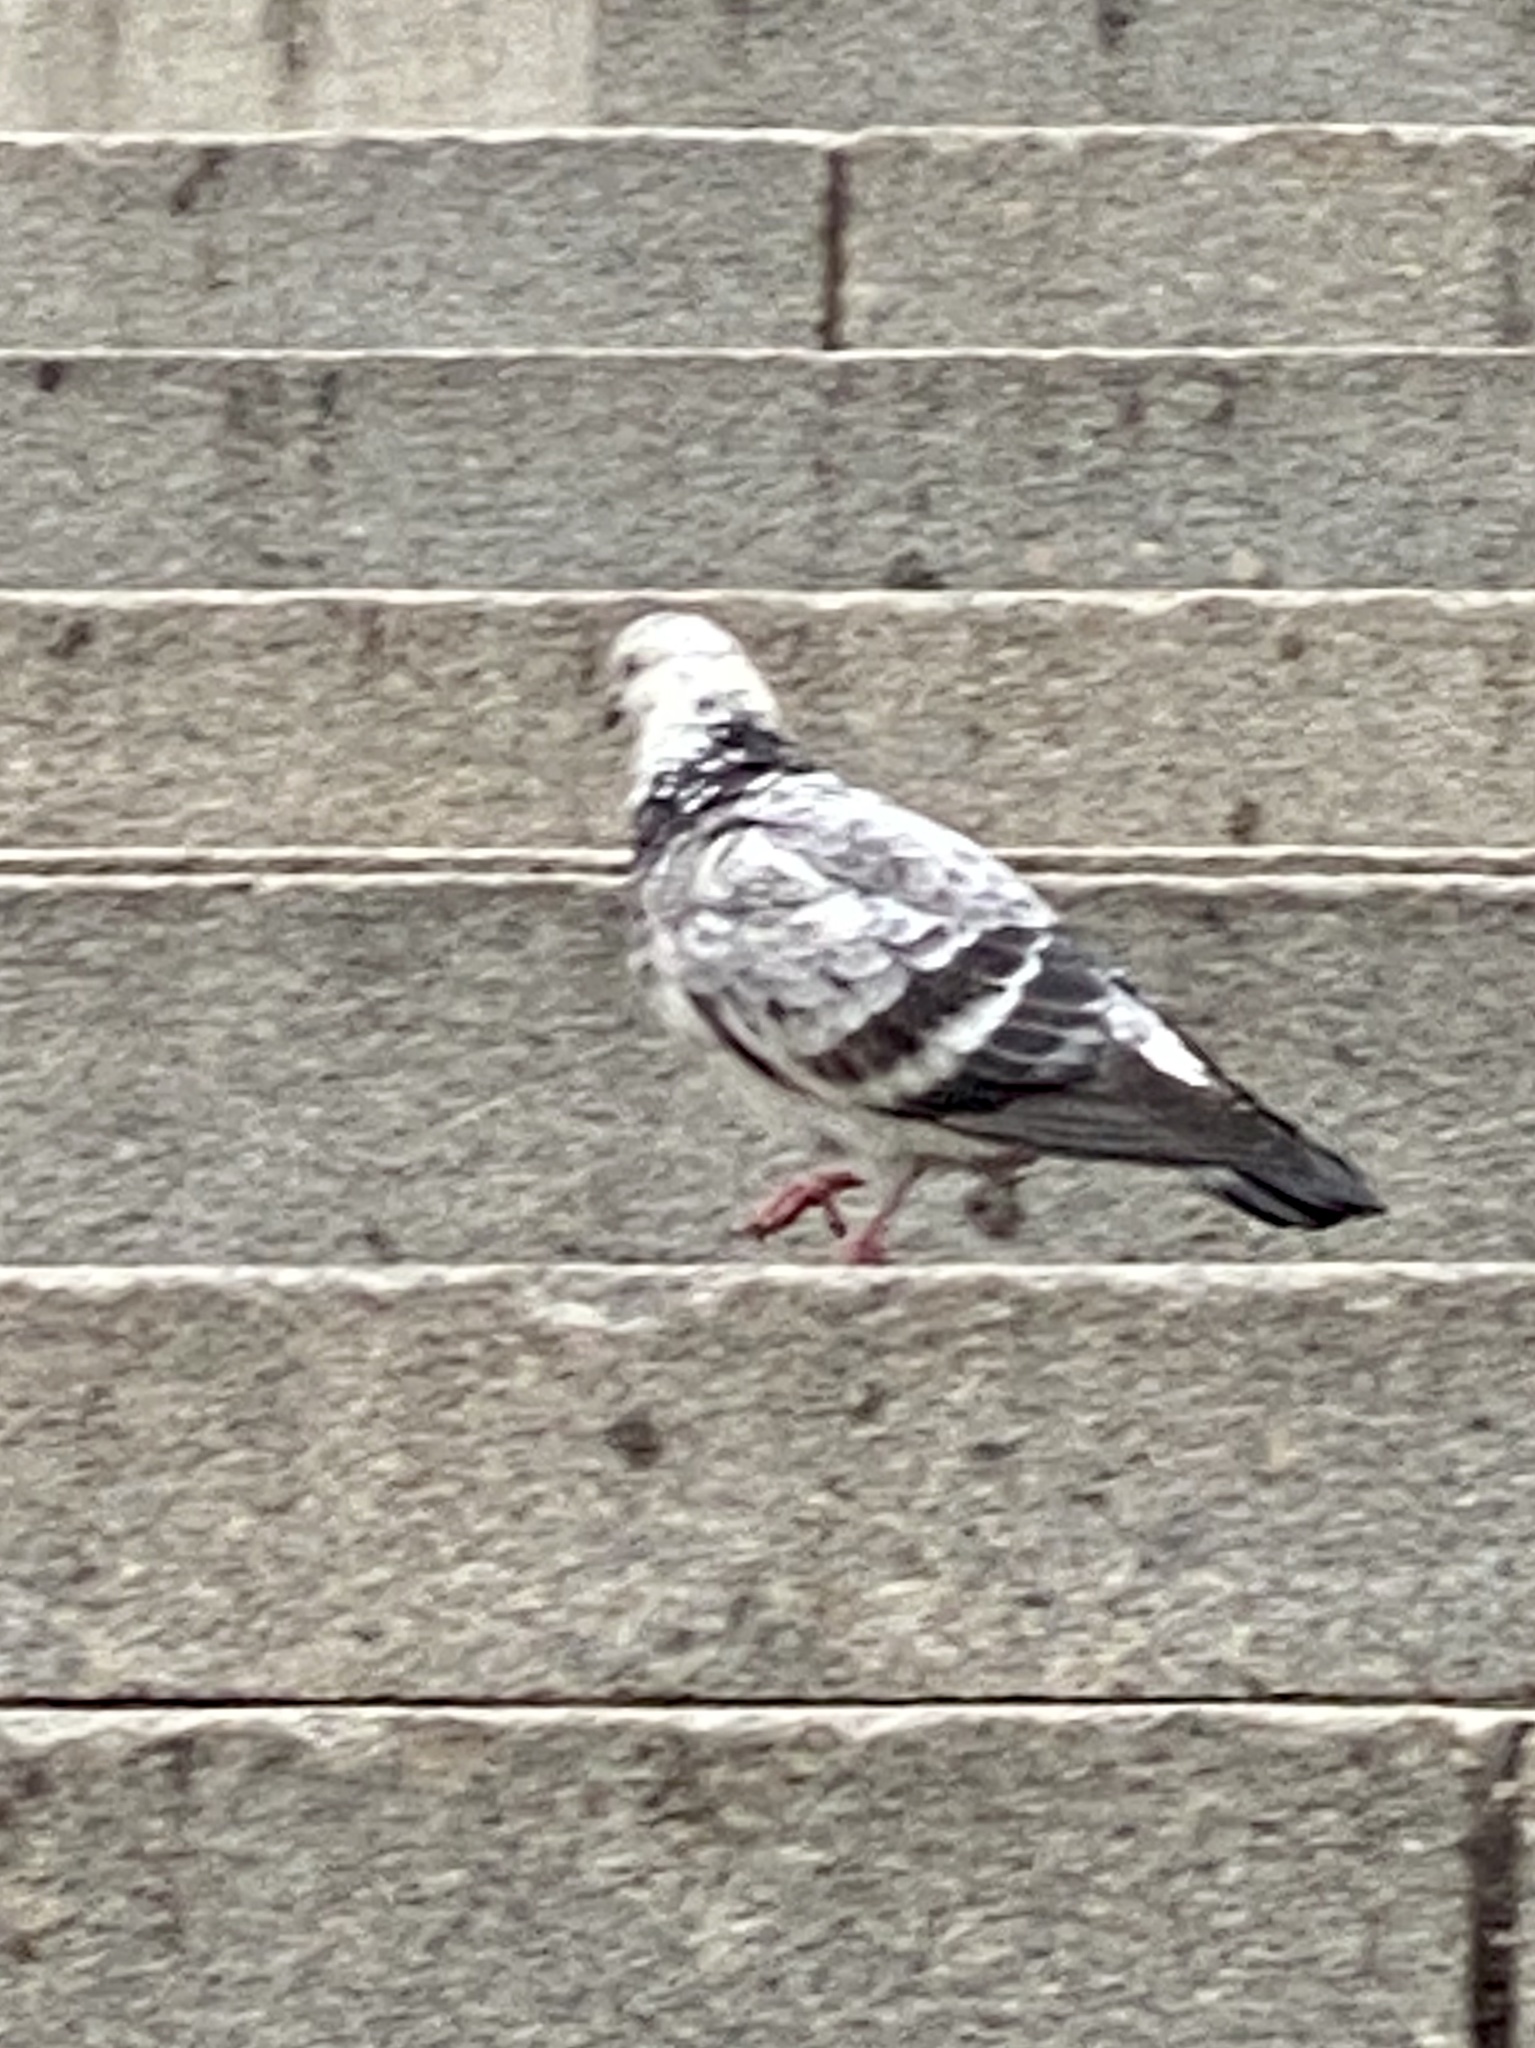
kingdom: Animalia
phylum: Chordata
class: Aves
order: Columbiformes
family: Columbidae
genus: Columba
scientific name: Columba livia
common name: Rock pigeon
